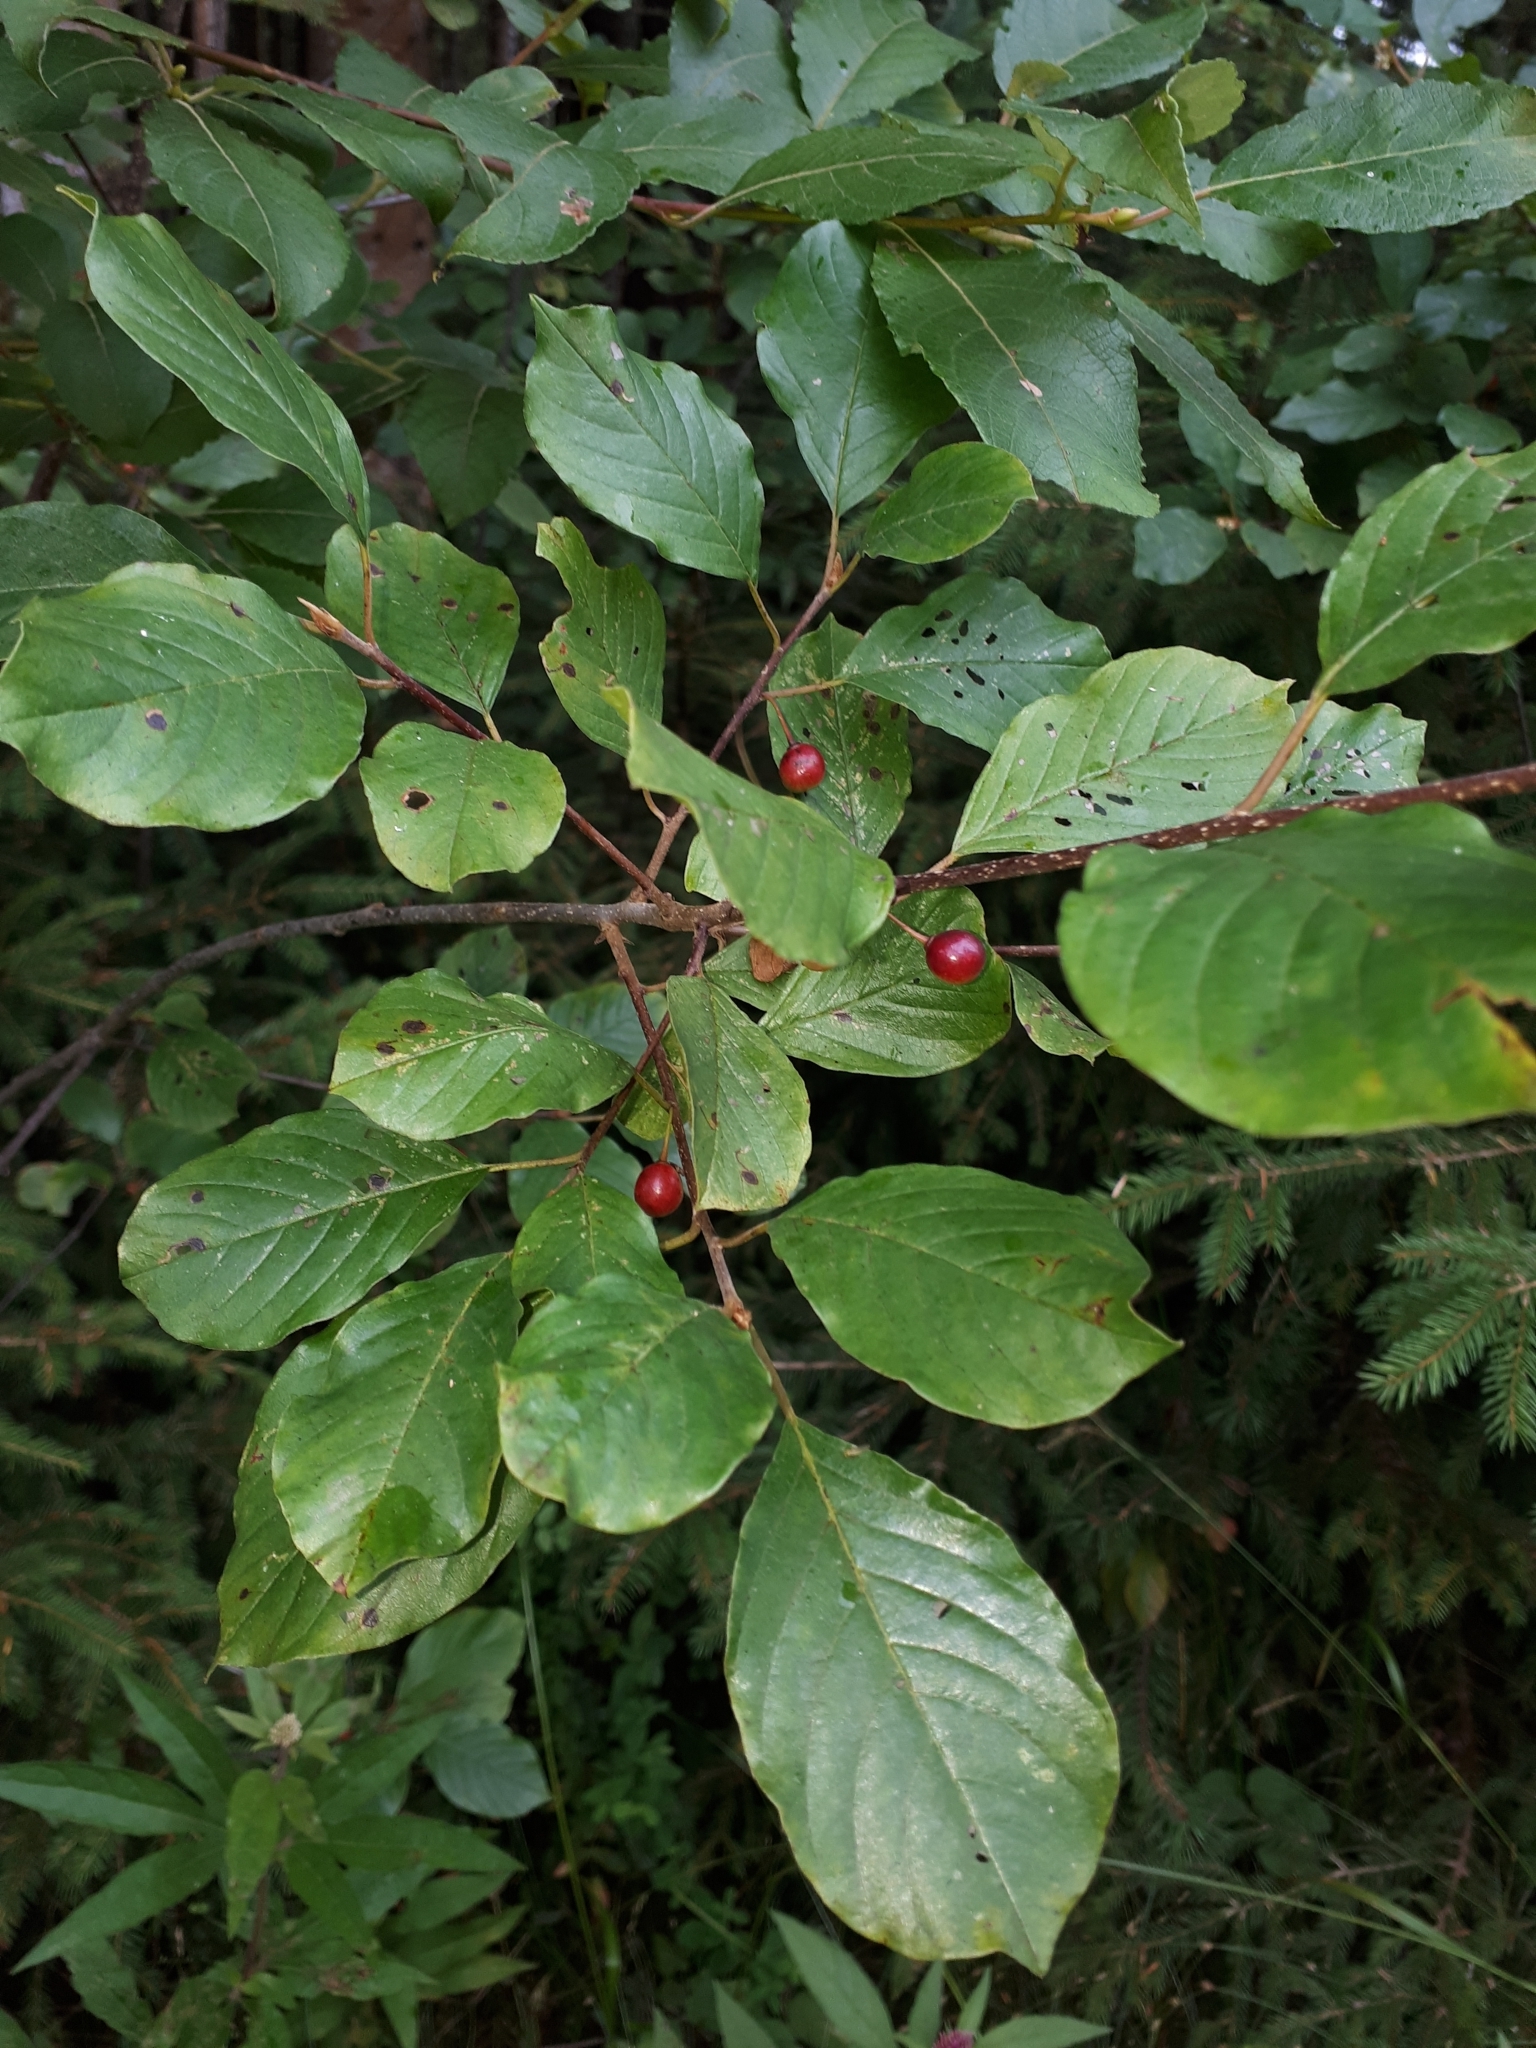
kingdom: Plantae
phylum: Tracheophyta
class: Magnoliopsida
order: Rosales
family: Rhamnaceae
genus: Frangula
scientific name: Frangula alnus
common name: Alder buckthorn
